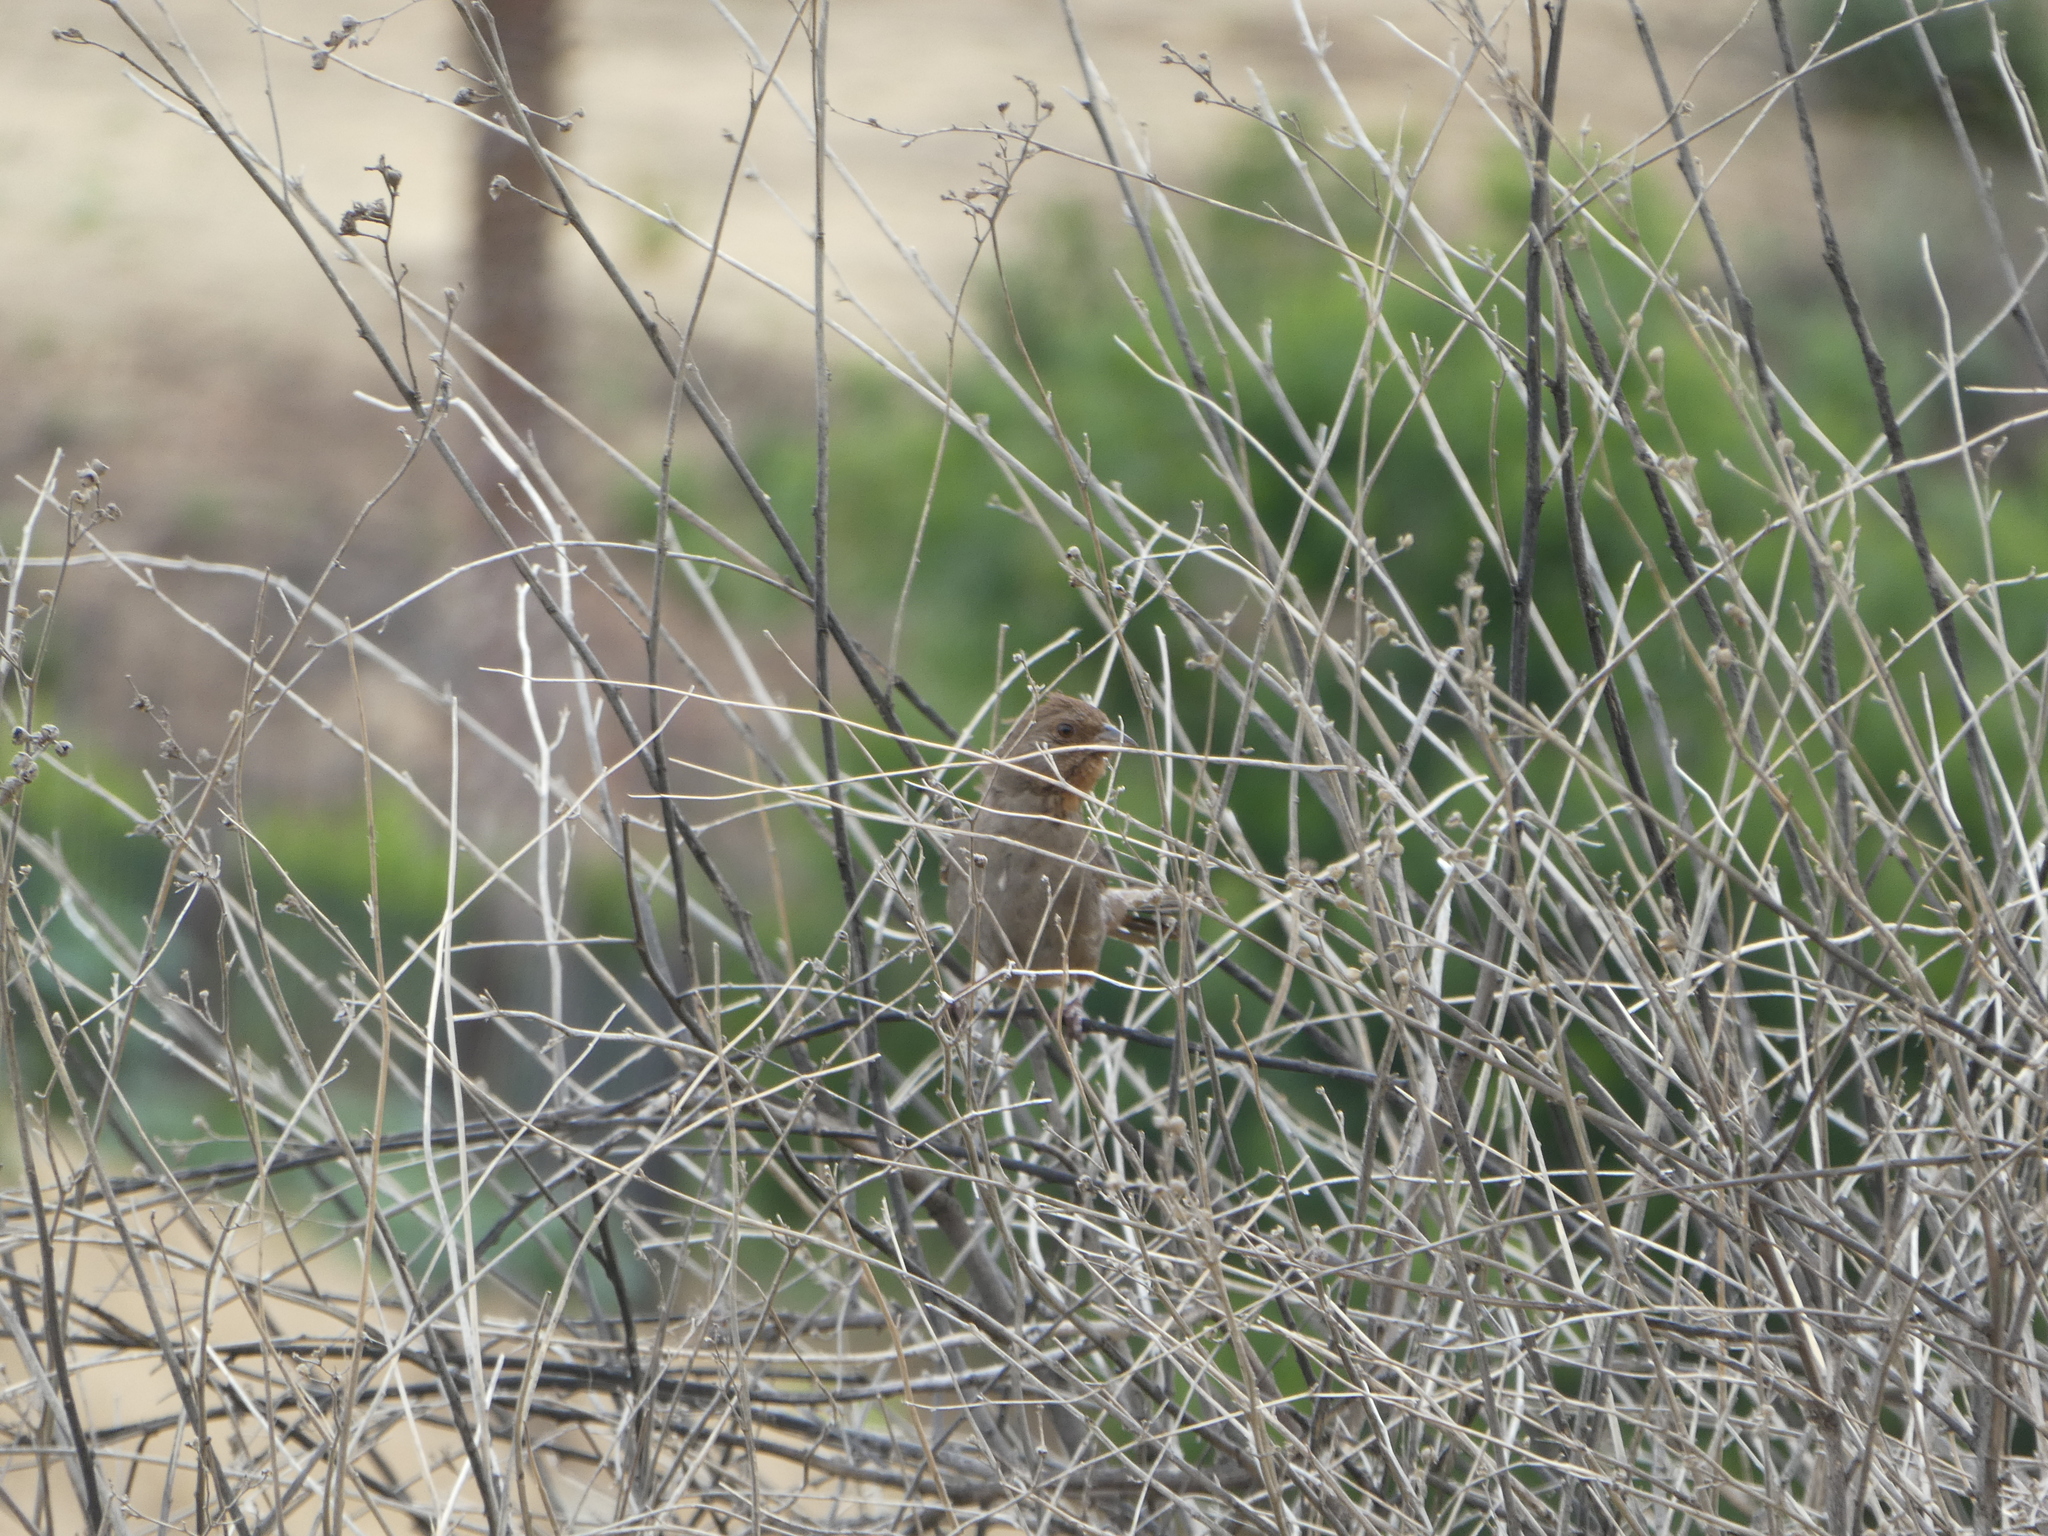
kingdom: Animalia
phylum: Chordata
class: Aves
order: Passeriformes
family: Passerellidae
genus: Melozone
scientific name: Melozone crissalis
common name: California towhee
